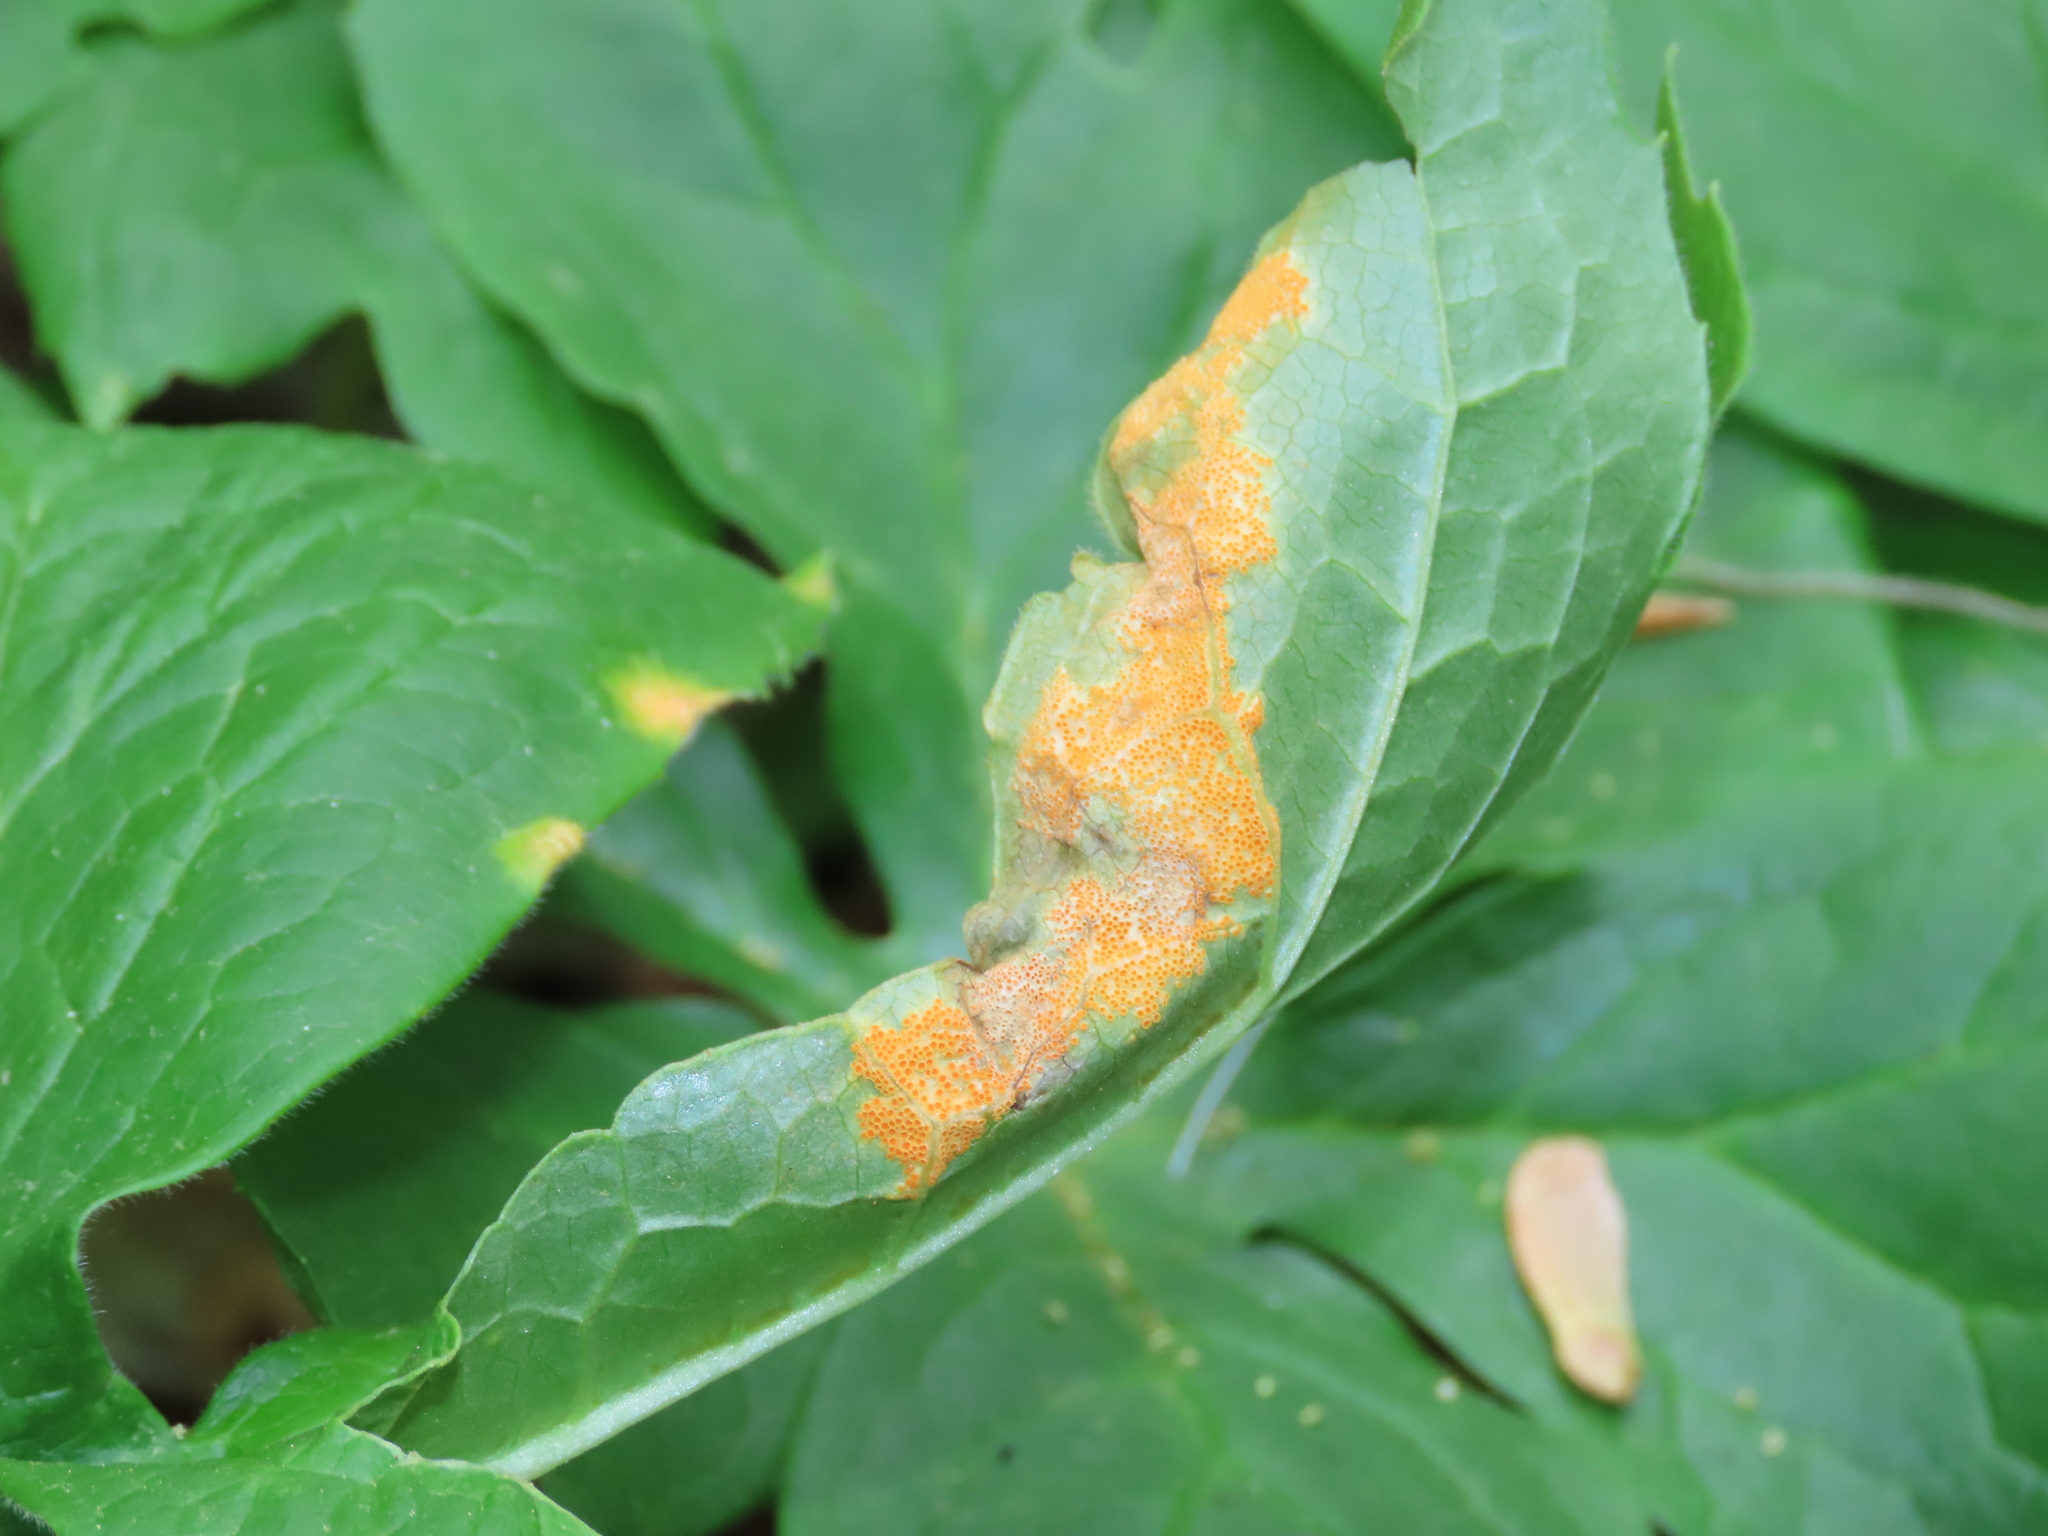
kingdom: Fungi
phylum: Basidiomycota
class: Pucciniomycetes
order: Pucciniales
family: Pucciniaceae
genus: Puccinia
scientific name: Puccinia podophylli
